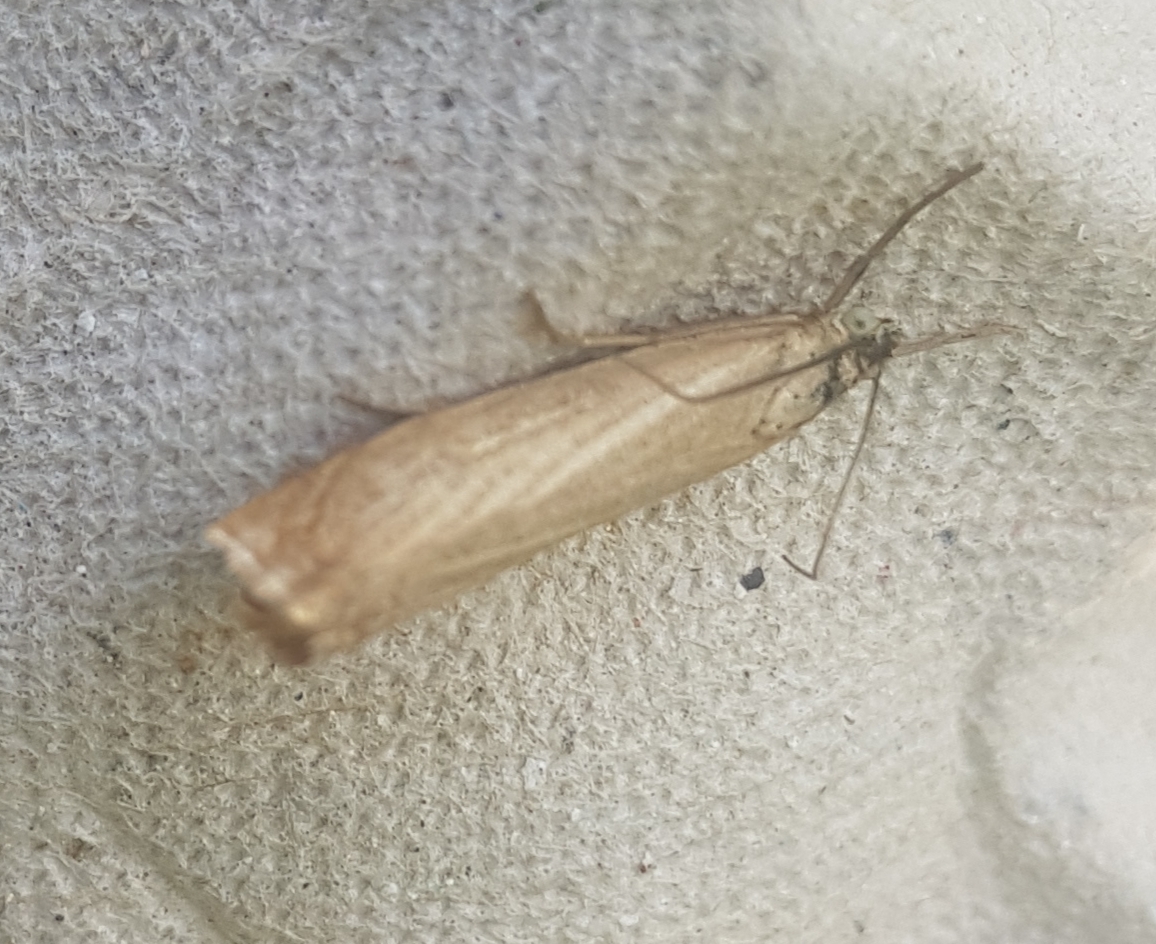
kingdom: Animalia
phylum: Arthropoda
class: Insecta
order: Lepidoptera
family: Crambidae
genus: Agriphila
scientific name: Agriphila straminella
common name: Straw grass-veneer
